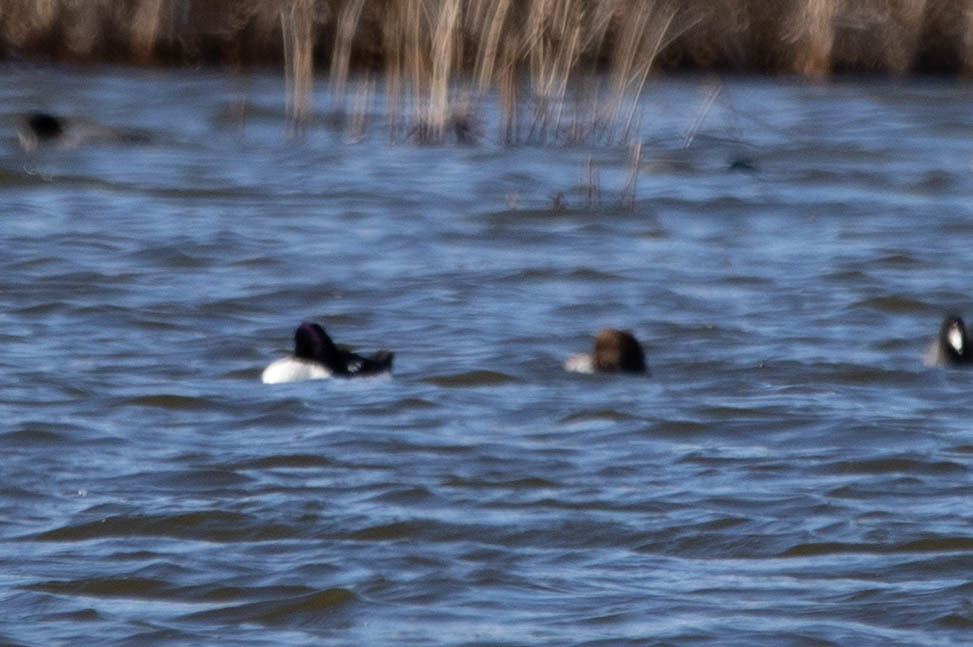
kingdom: Animalia
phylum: Chordata
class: Aves
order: Anseriformes
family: Anatidae
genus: Bucephala
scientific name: Bucephala islandica
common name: Barrow's goldeneye
